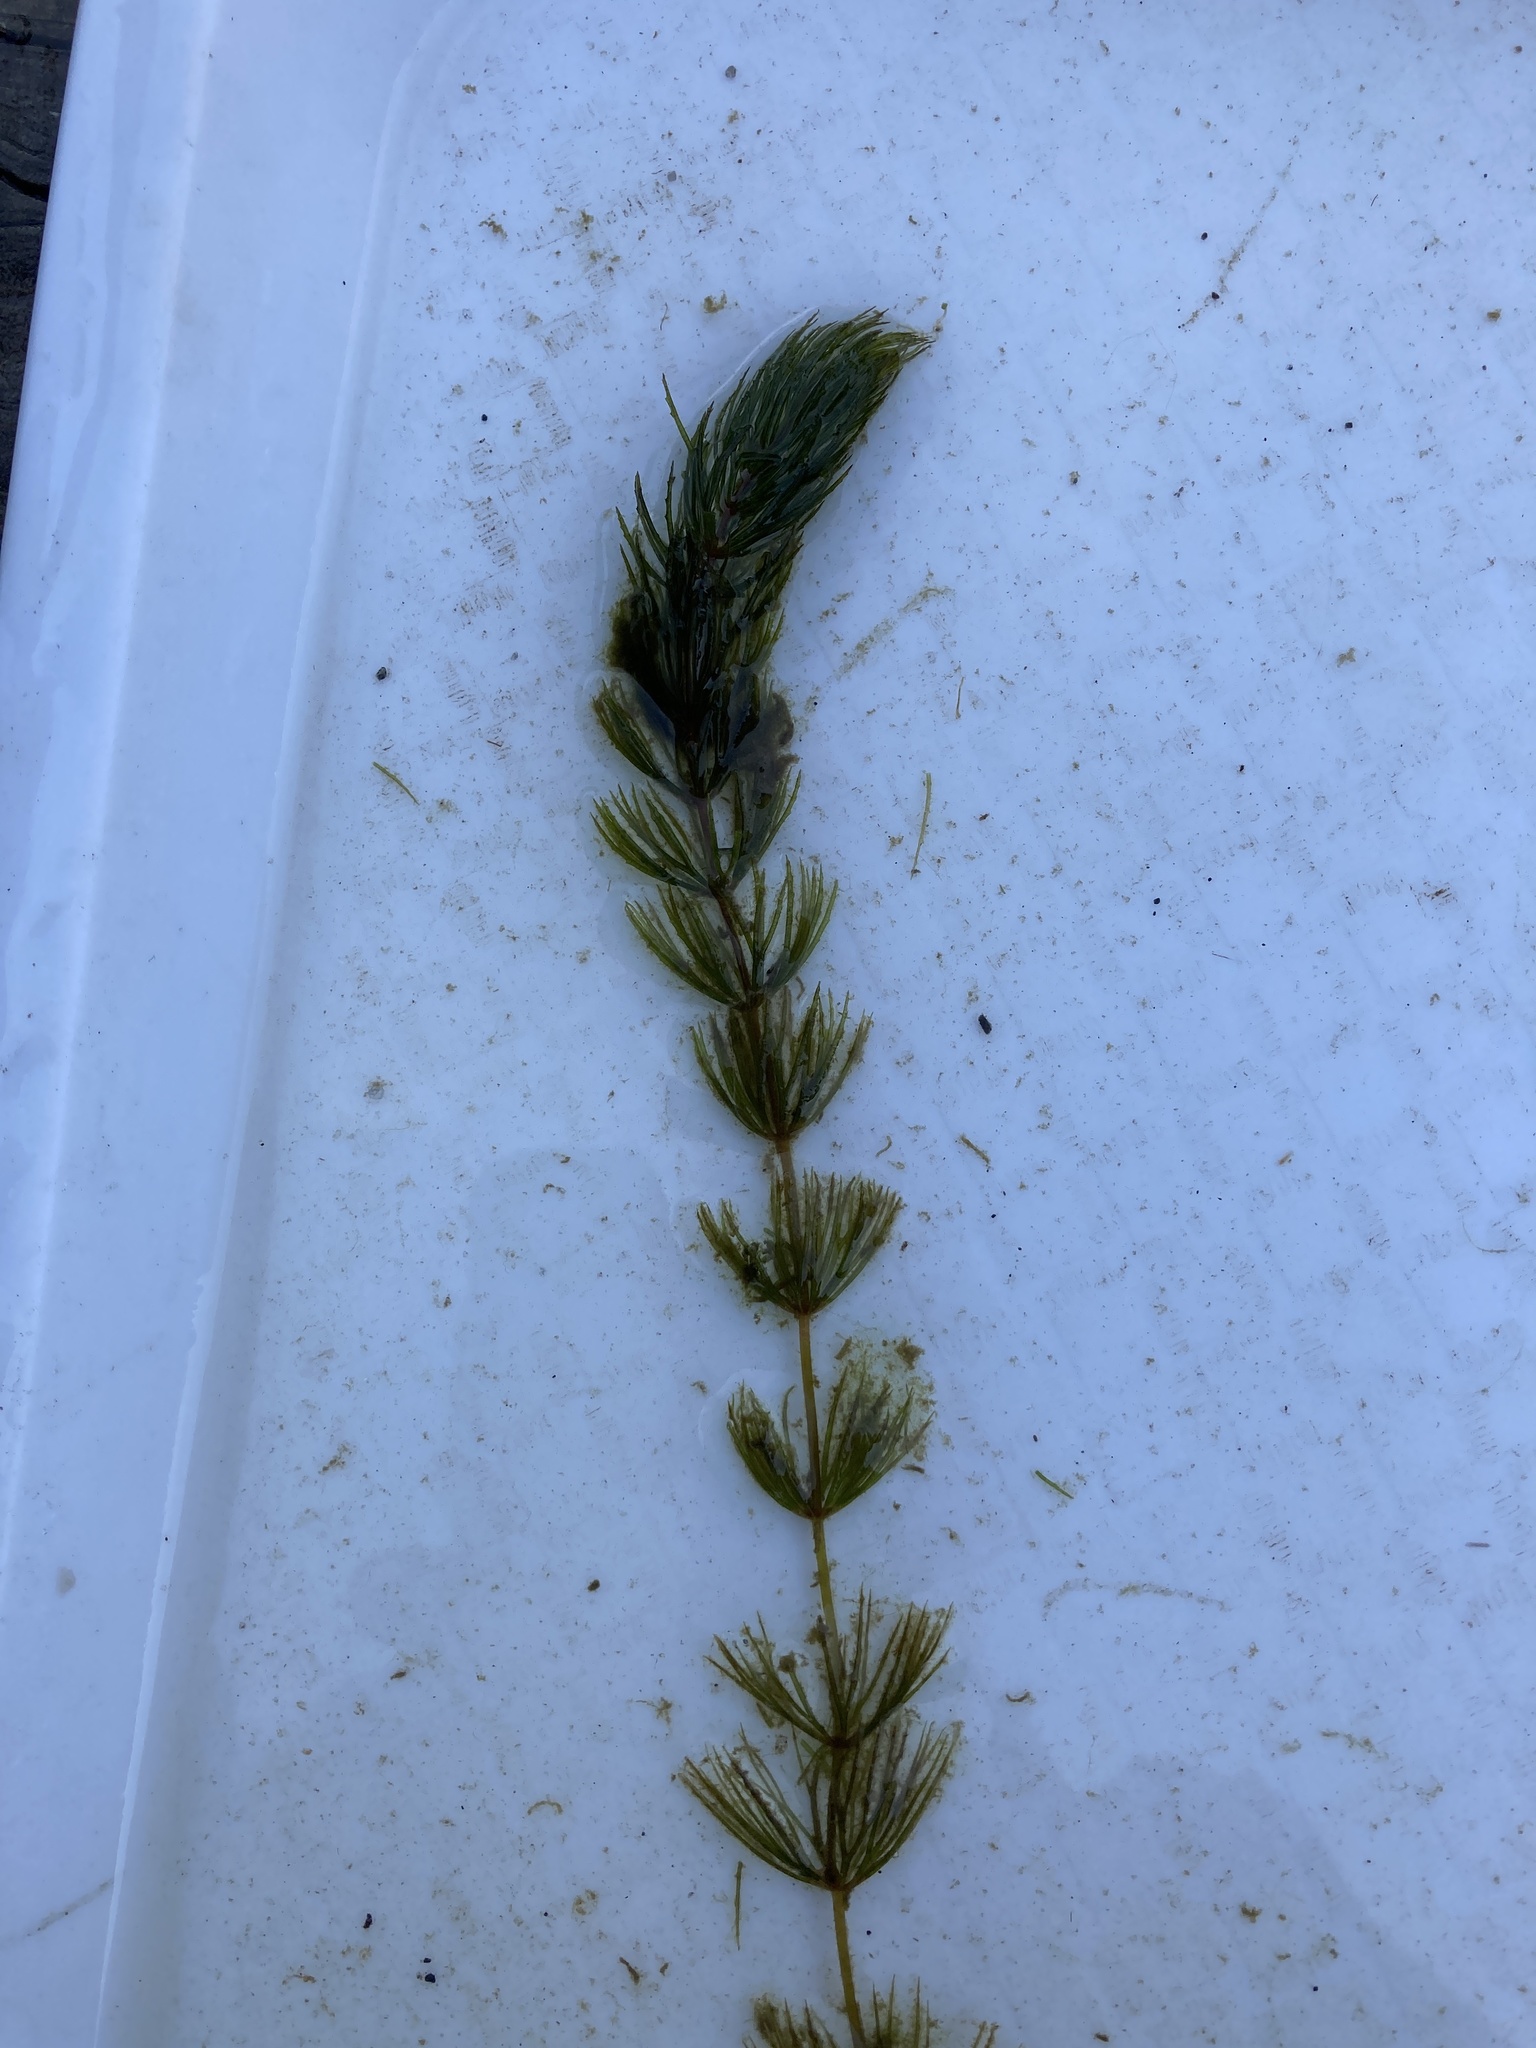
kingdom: Plantae
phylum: Tracheophyta
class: Magnoliopsida
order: Ceratophyllales
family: Ceratophyllaceae
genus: Ceratophyllum
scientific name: Ceratophyllum demersum
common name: Rigid hornwort
